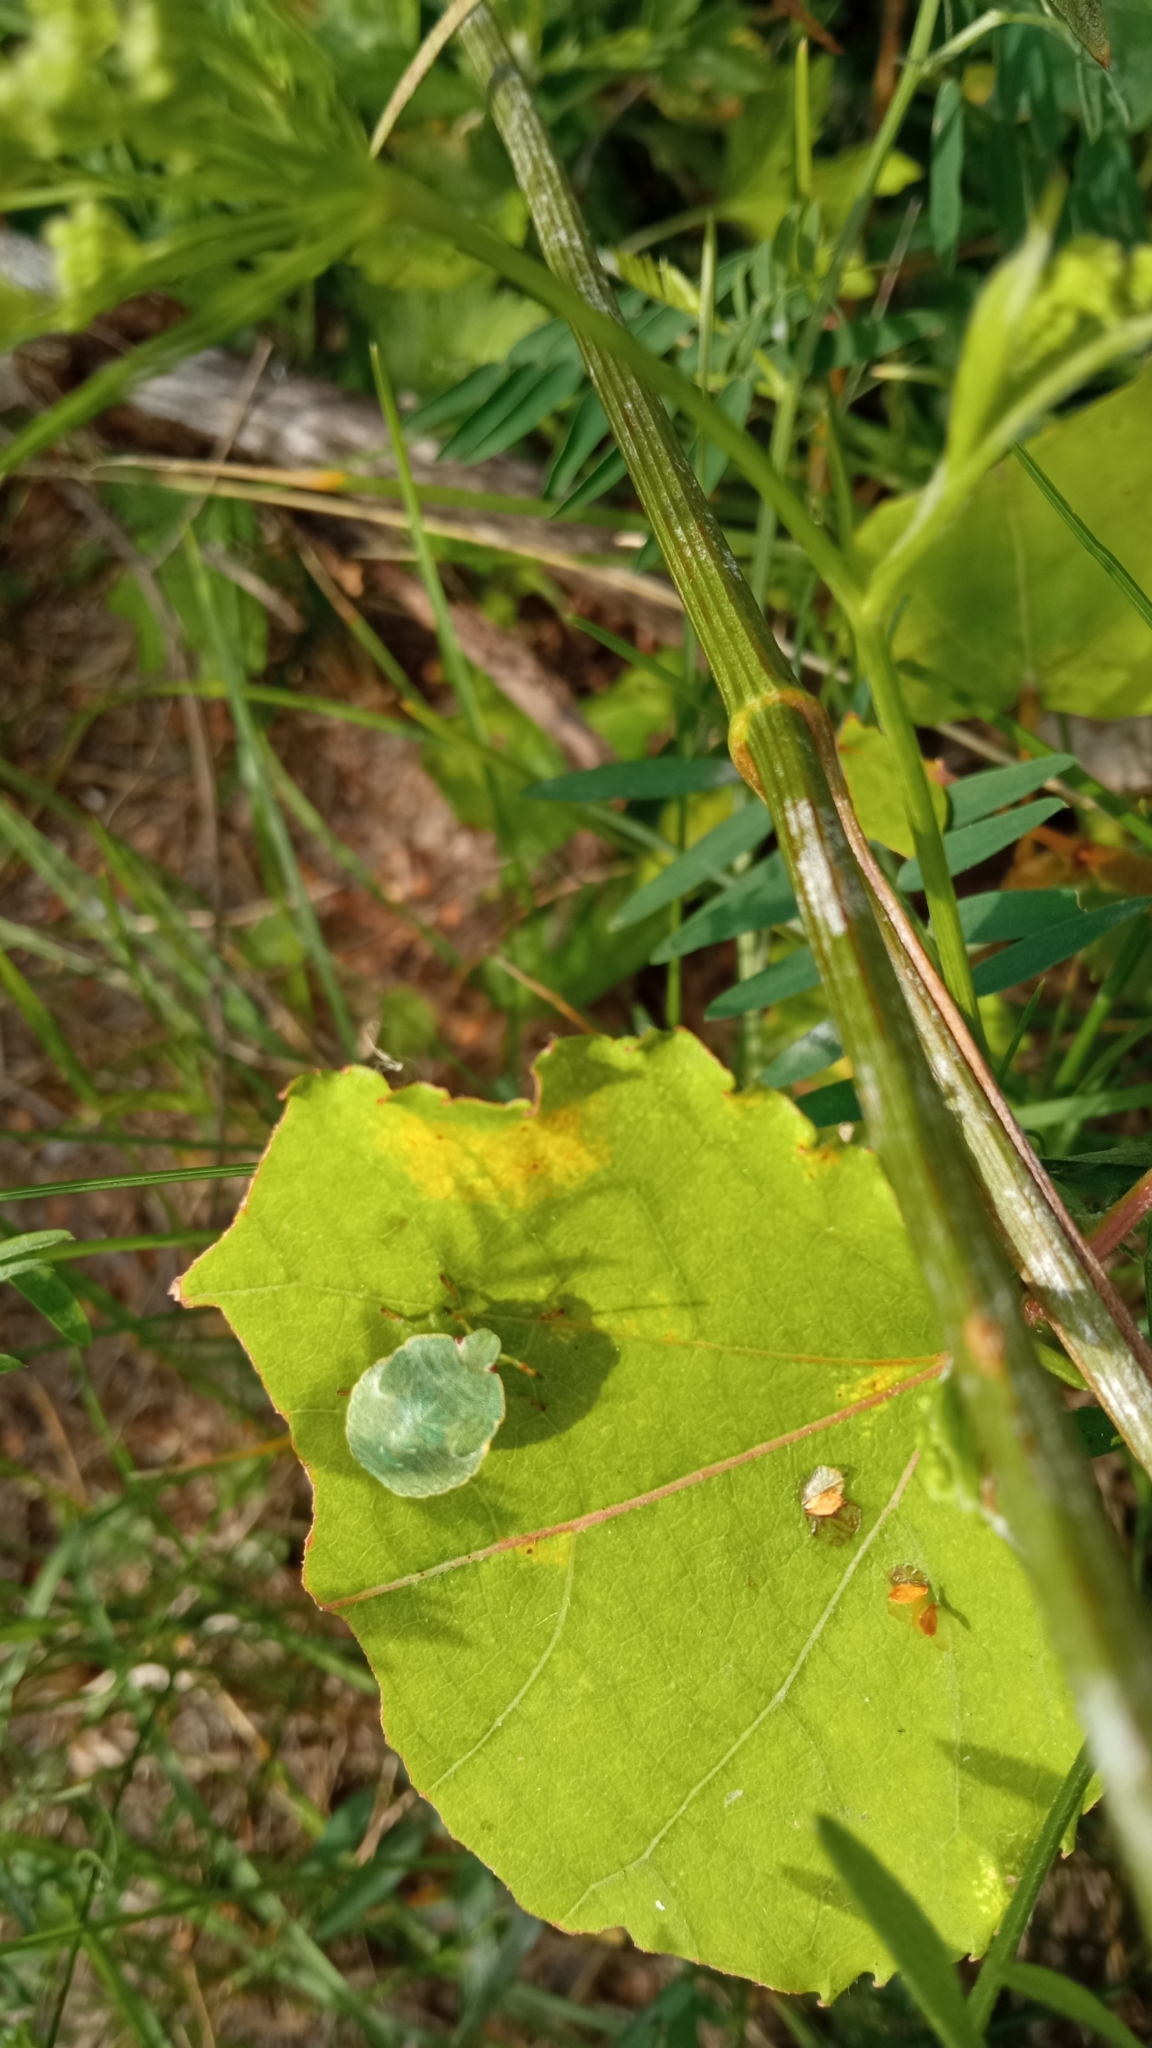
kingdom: Animalia
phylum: Arthropoda
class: Insecta
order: Hemiptera
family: Pentatomidae
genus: Palomena
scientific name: Palomena prasina
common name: Green shieldbug
